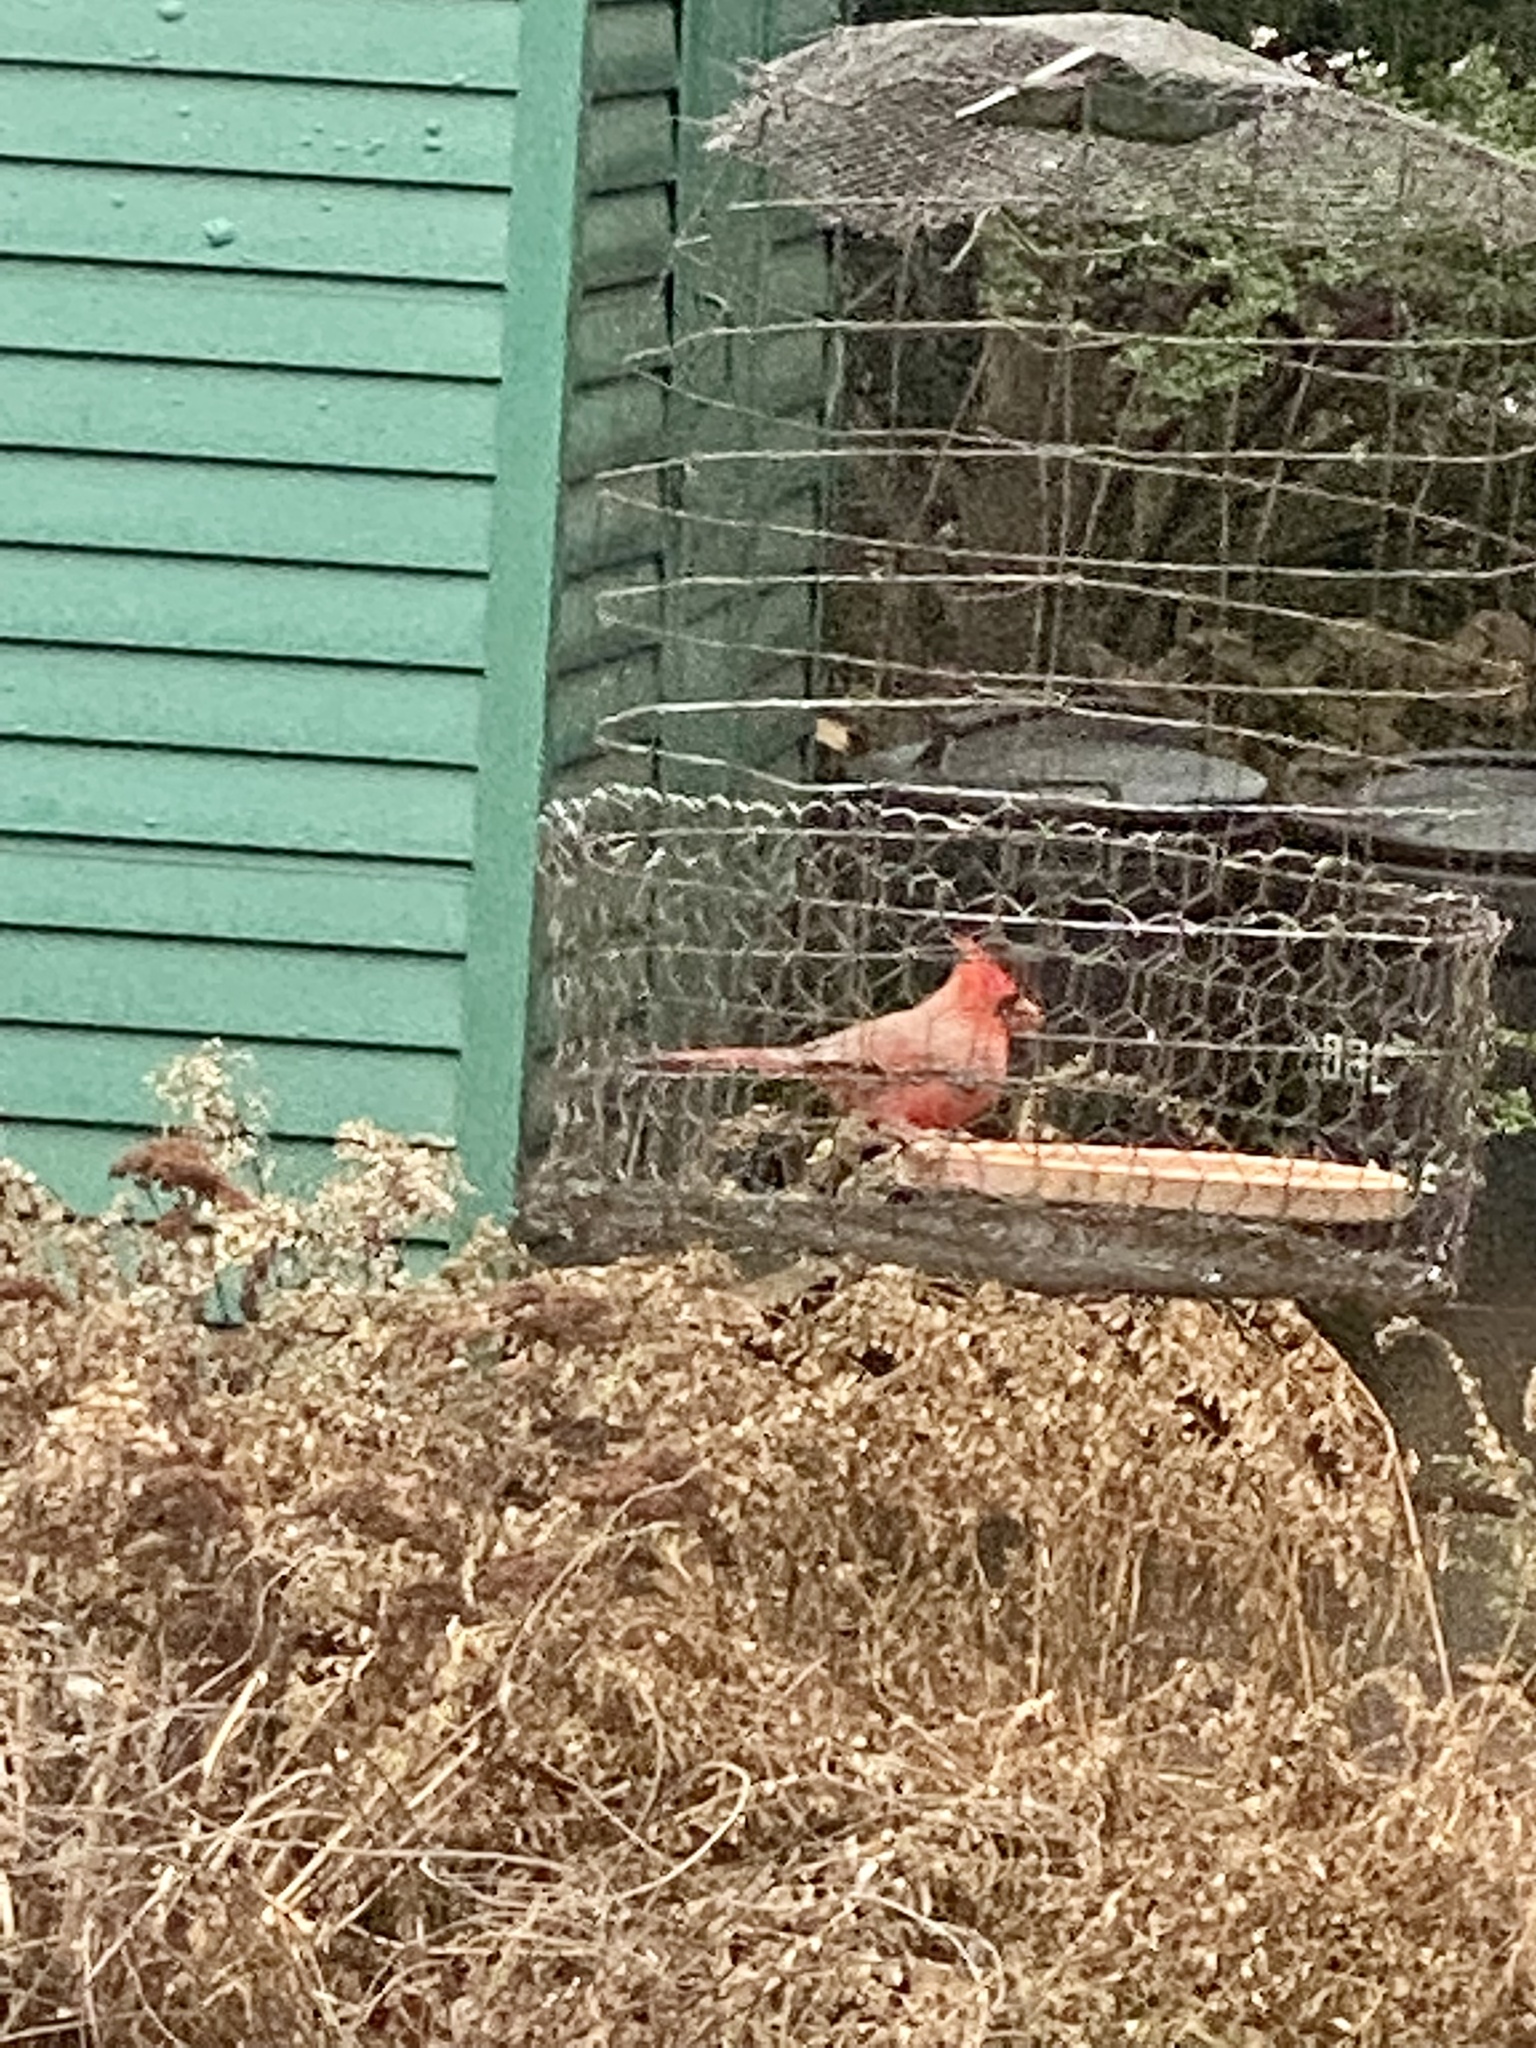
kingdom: Animalia
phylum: Chordata
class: Aves
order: Passeriformes
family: Cardinalidae
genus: Cardinalis
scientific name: Cardinalis cardinalis
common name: Northern cardinal
